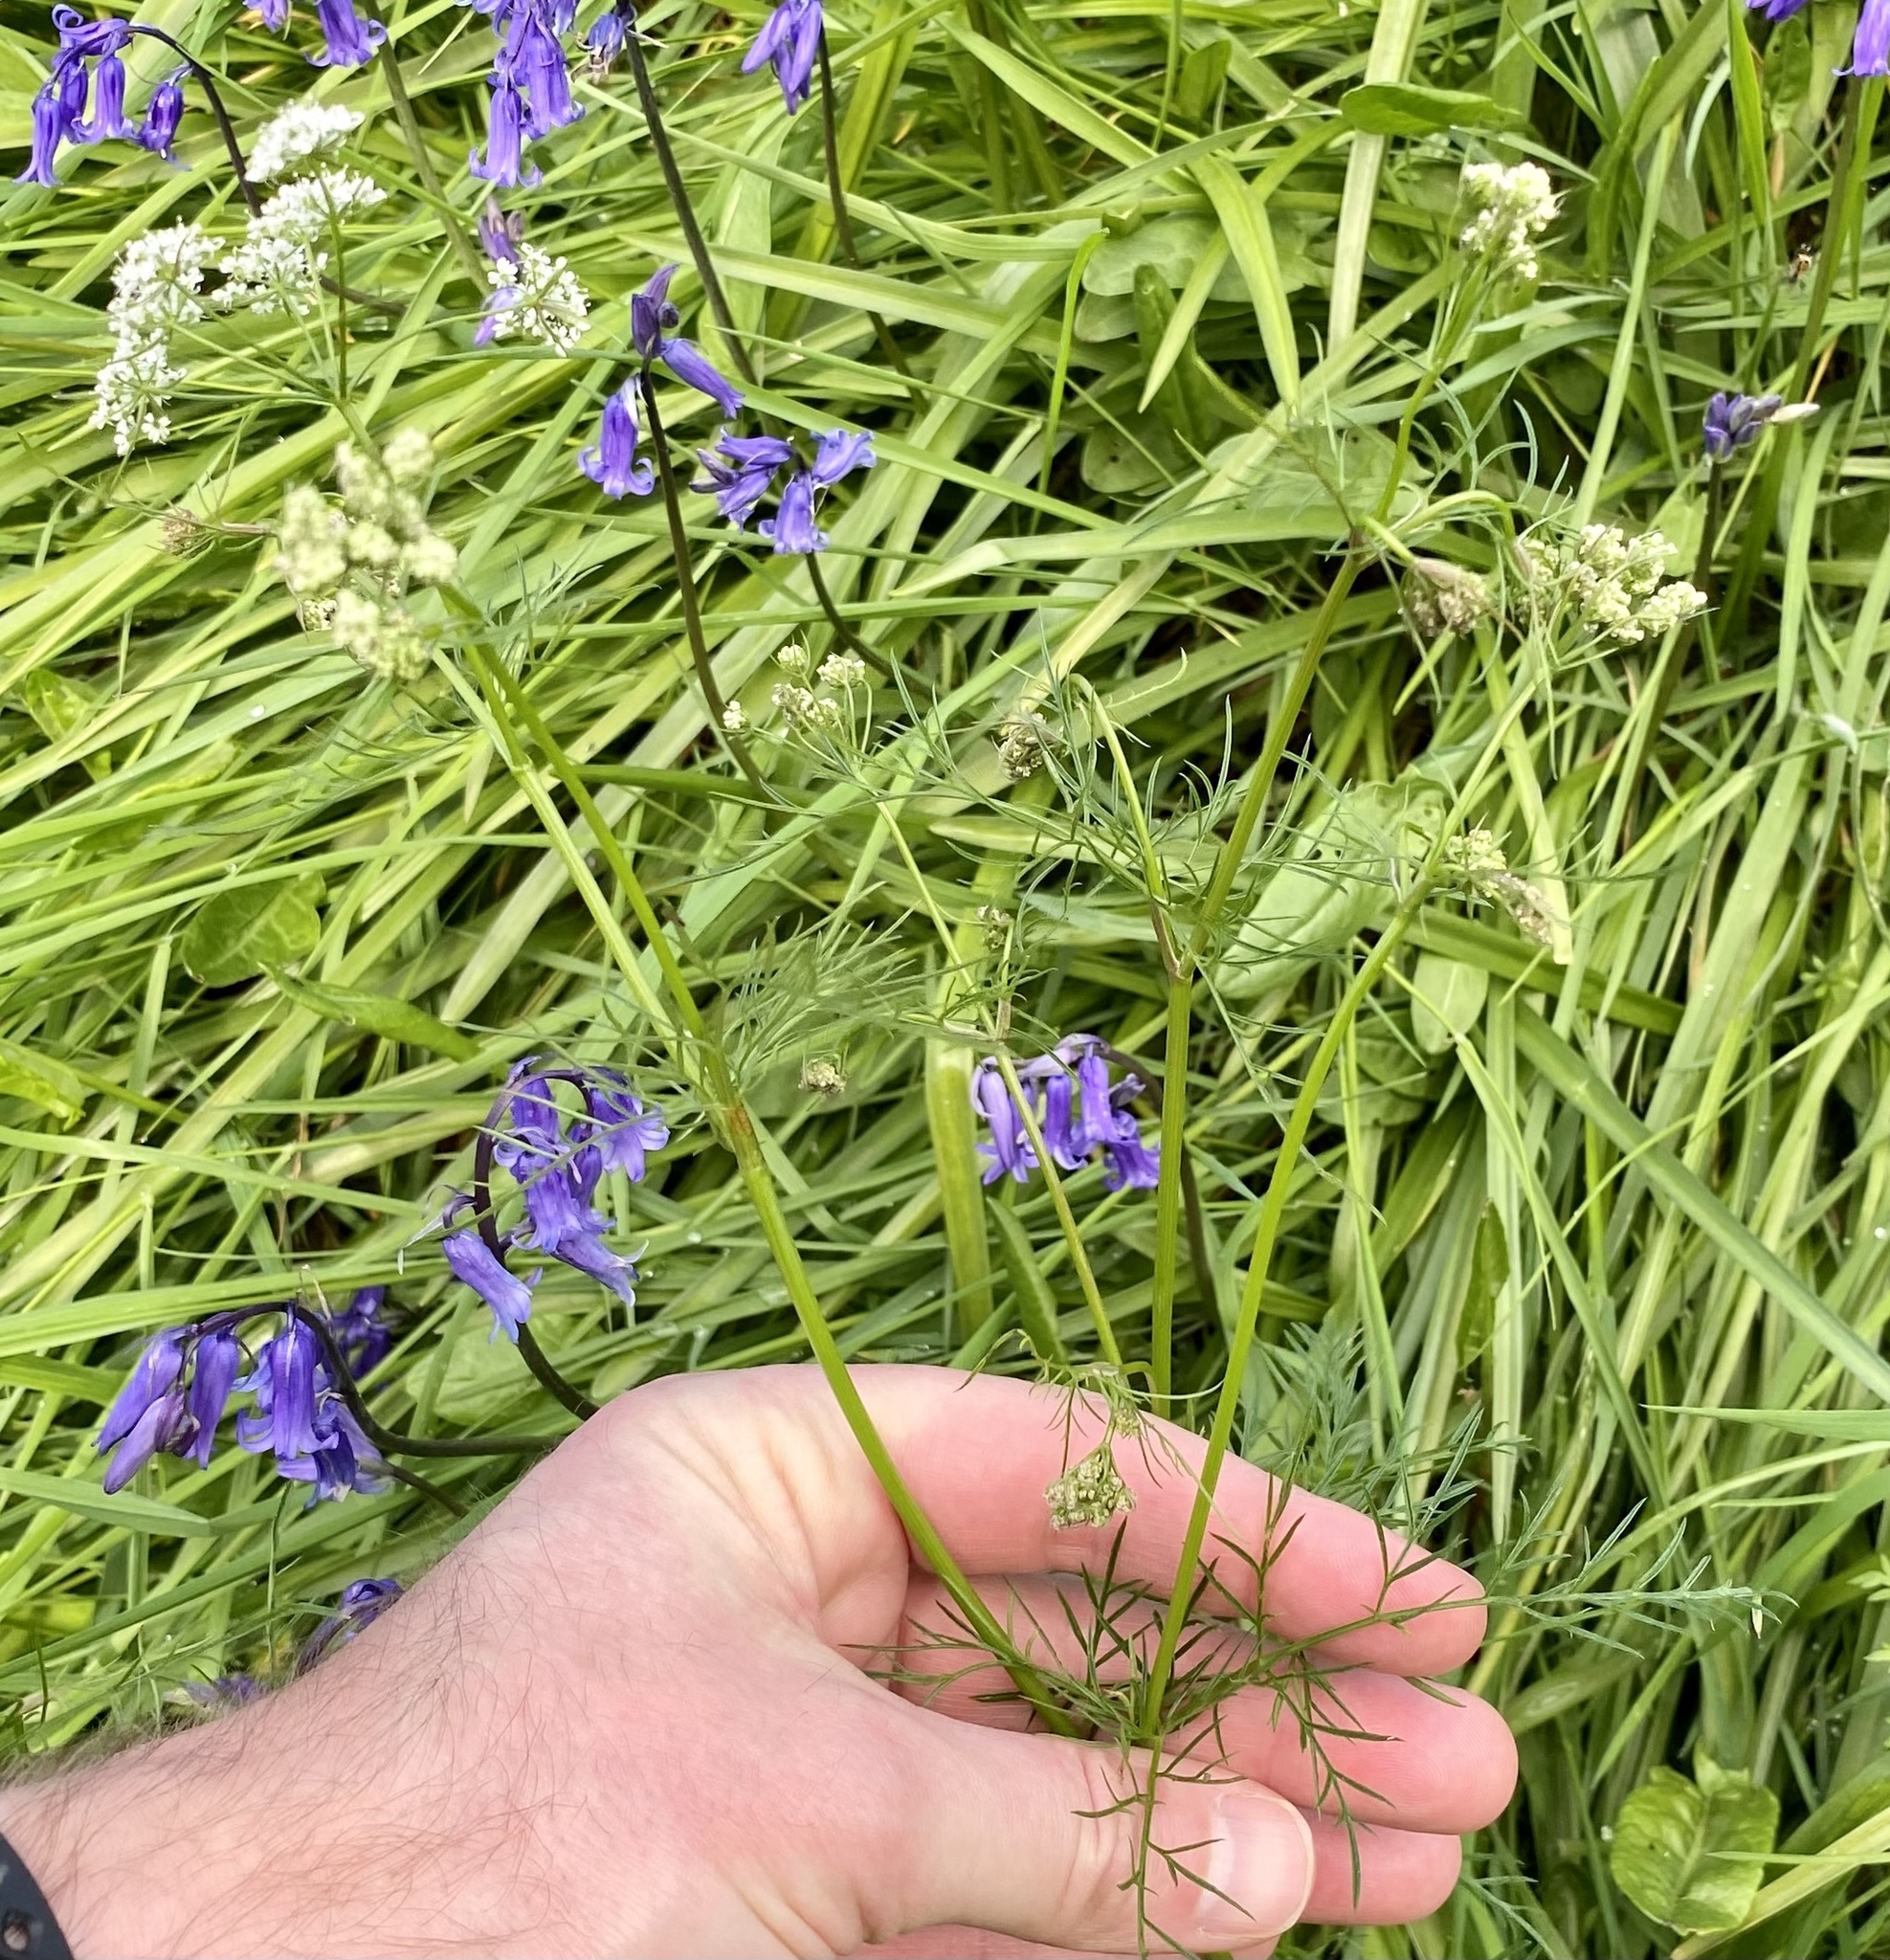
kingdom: Plantae
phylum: Tracheophyta
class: Magnoliopsida
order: Apiales
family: Apiaceae
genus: Conopodium
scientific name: Conopodium majus
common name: Pignut
